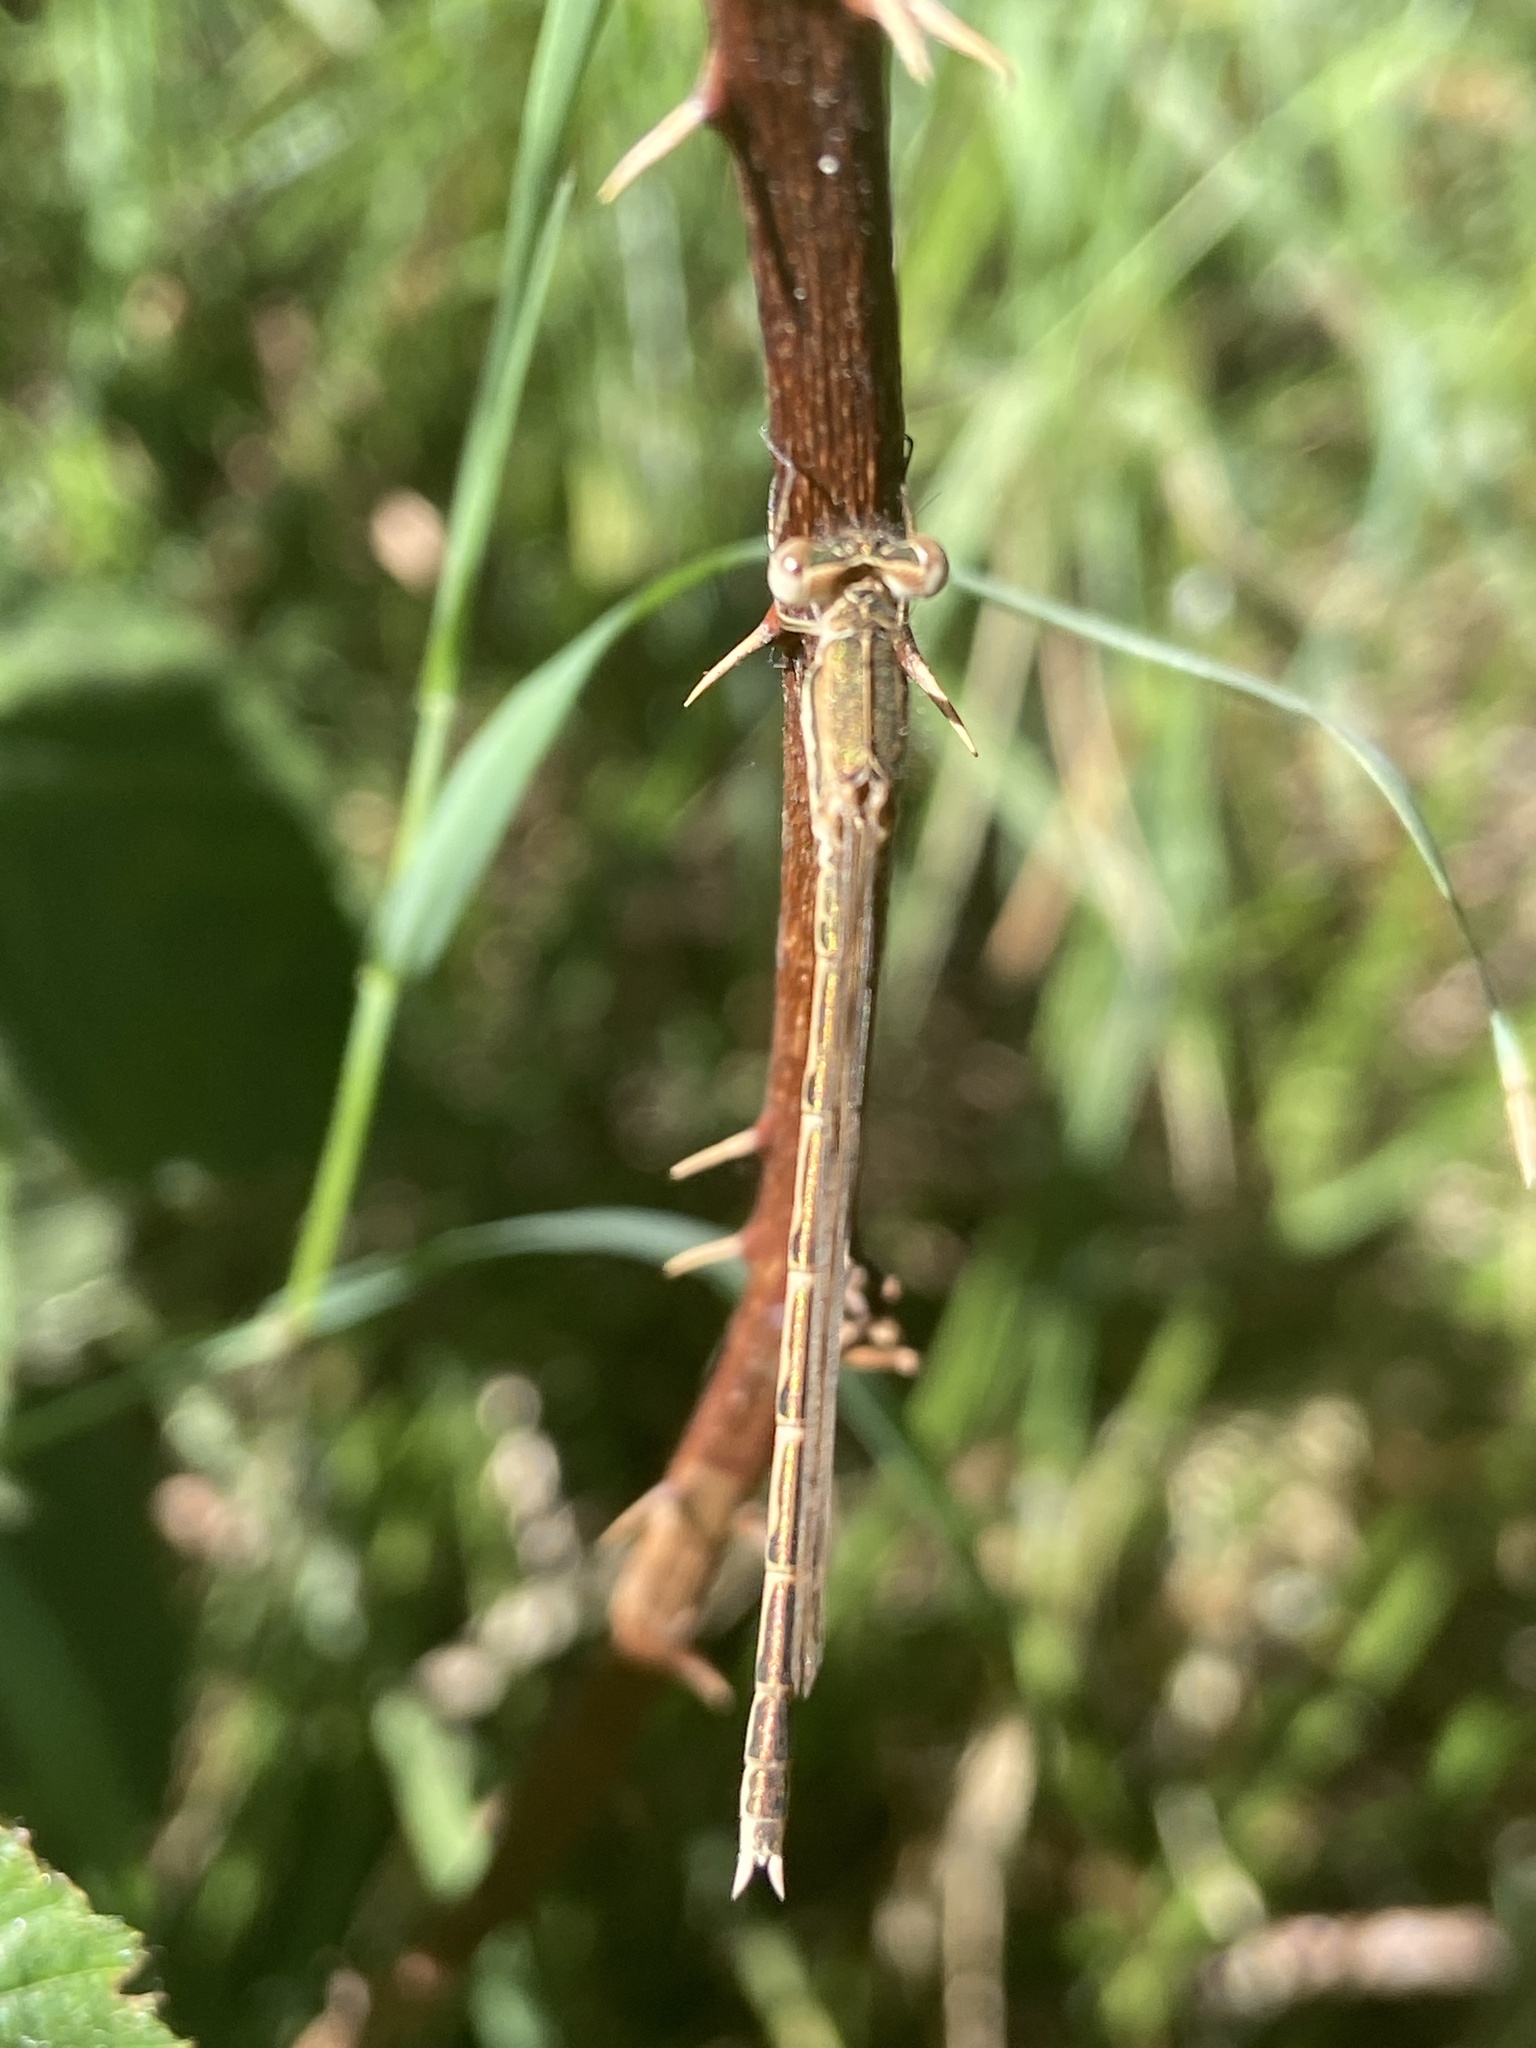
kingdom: Animalia
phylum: Arthropoda
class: Insecta
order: Odonata
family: Lestidae
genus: Sympecma
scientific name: Sympecma fusca
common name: Common winter damsel
